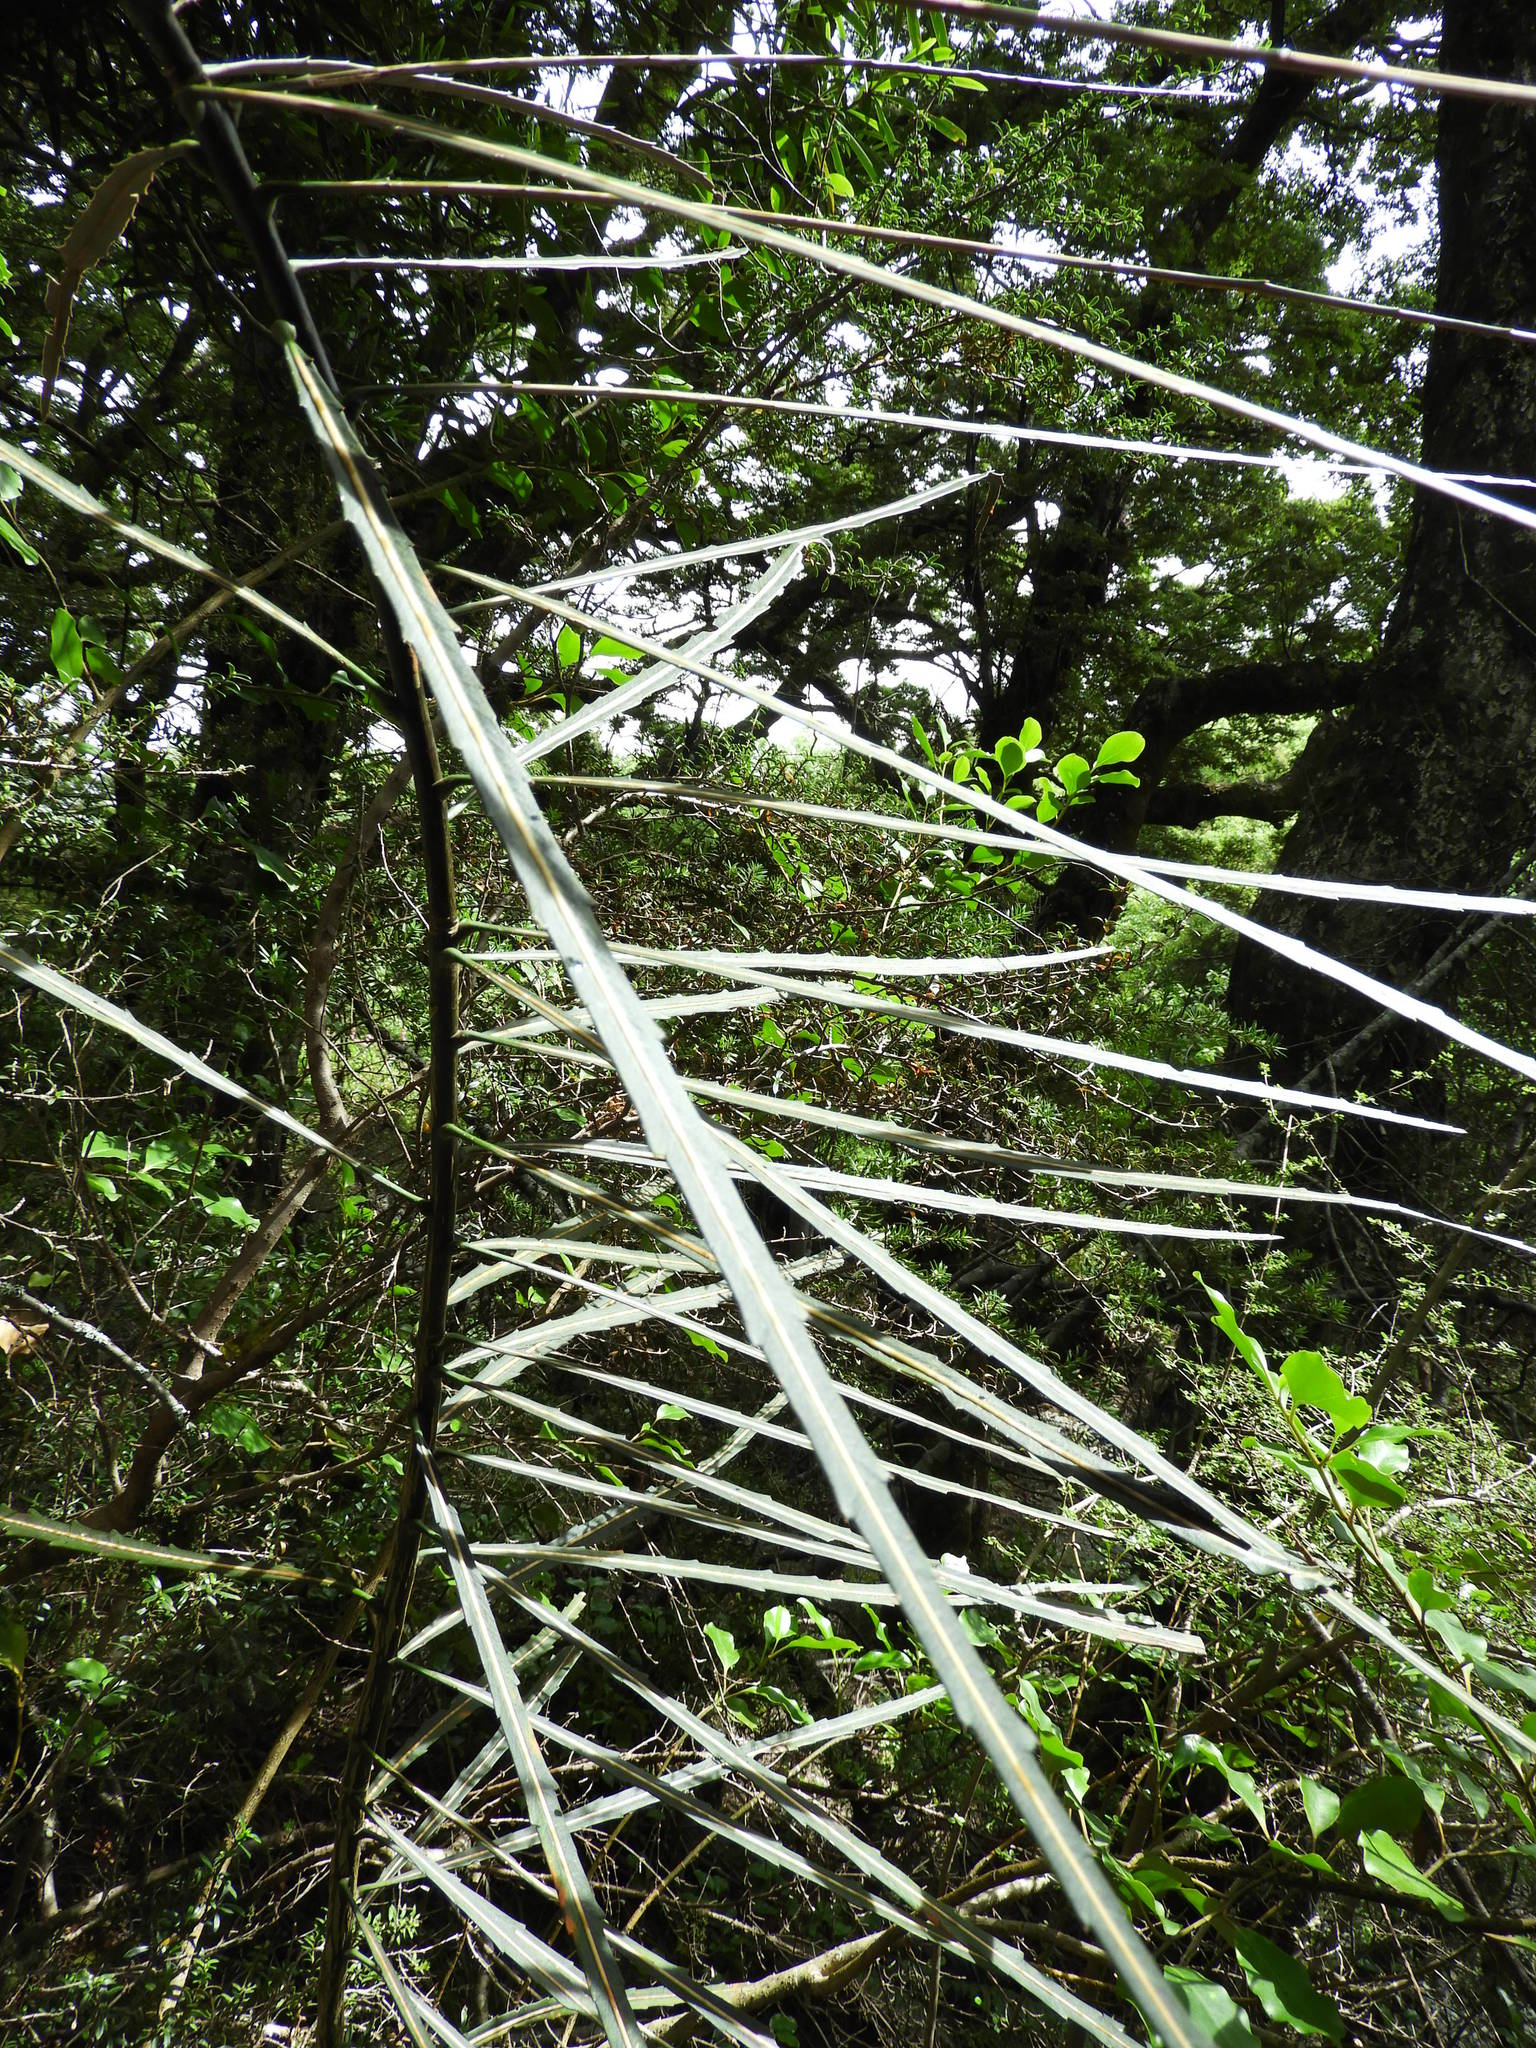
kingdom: Plantae
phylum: Tracheophyta
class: Magnoliopsida
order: Apiales
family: Araliaceae
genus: Pseudopanax
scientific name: Pseudopanax crassifolius
